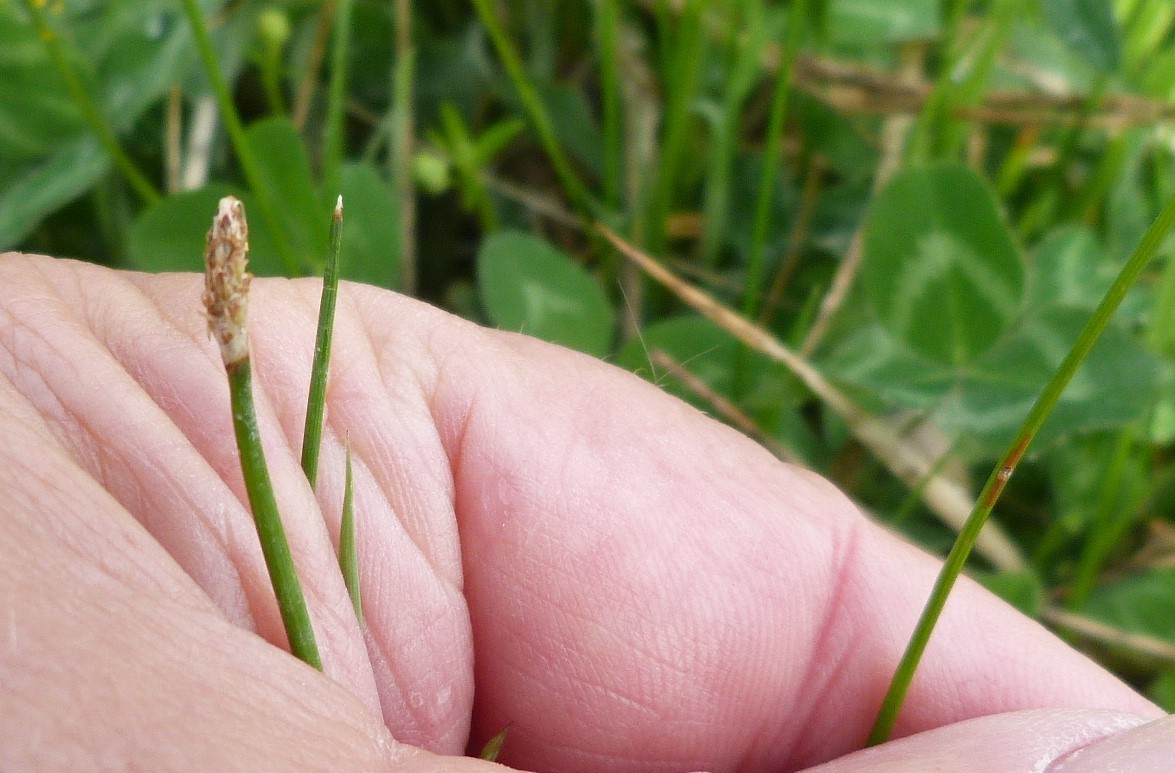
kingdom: Plantae
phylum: Tracheophyta
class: Liliopsida
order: Poales
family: Cyperaceae
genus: Eleocharis
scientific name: Eleocharis acuta
